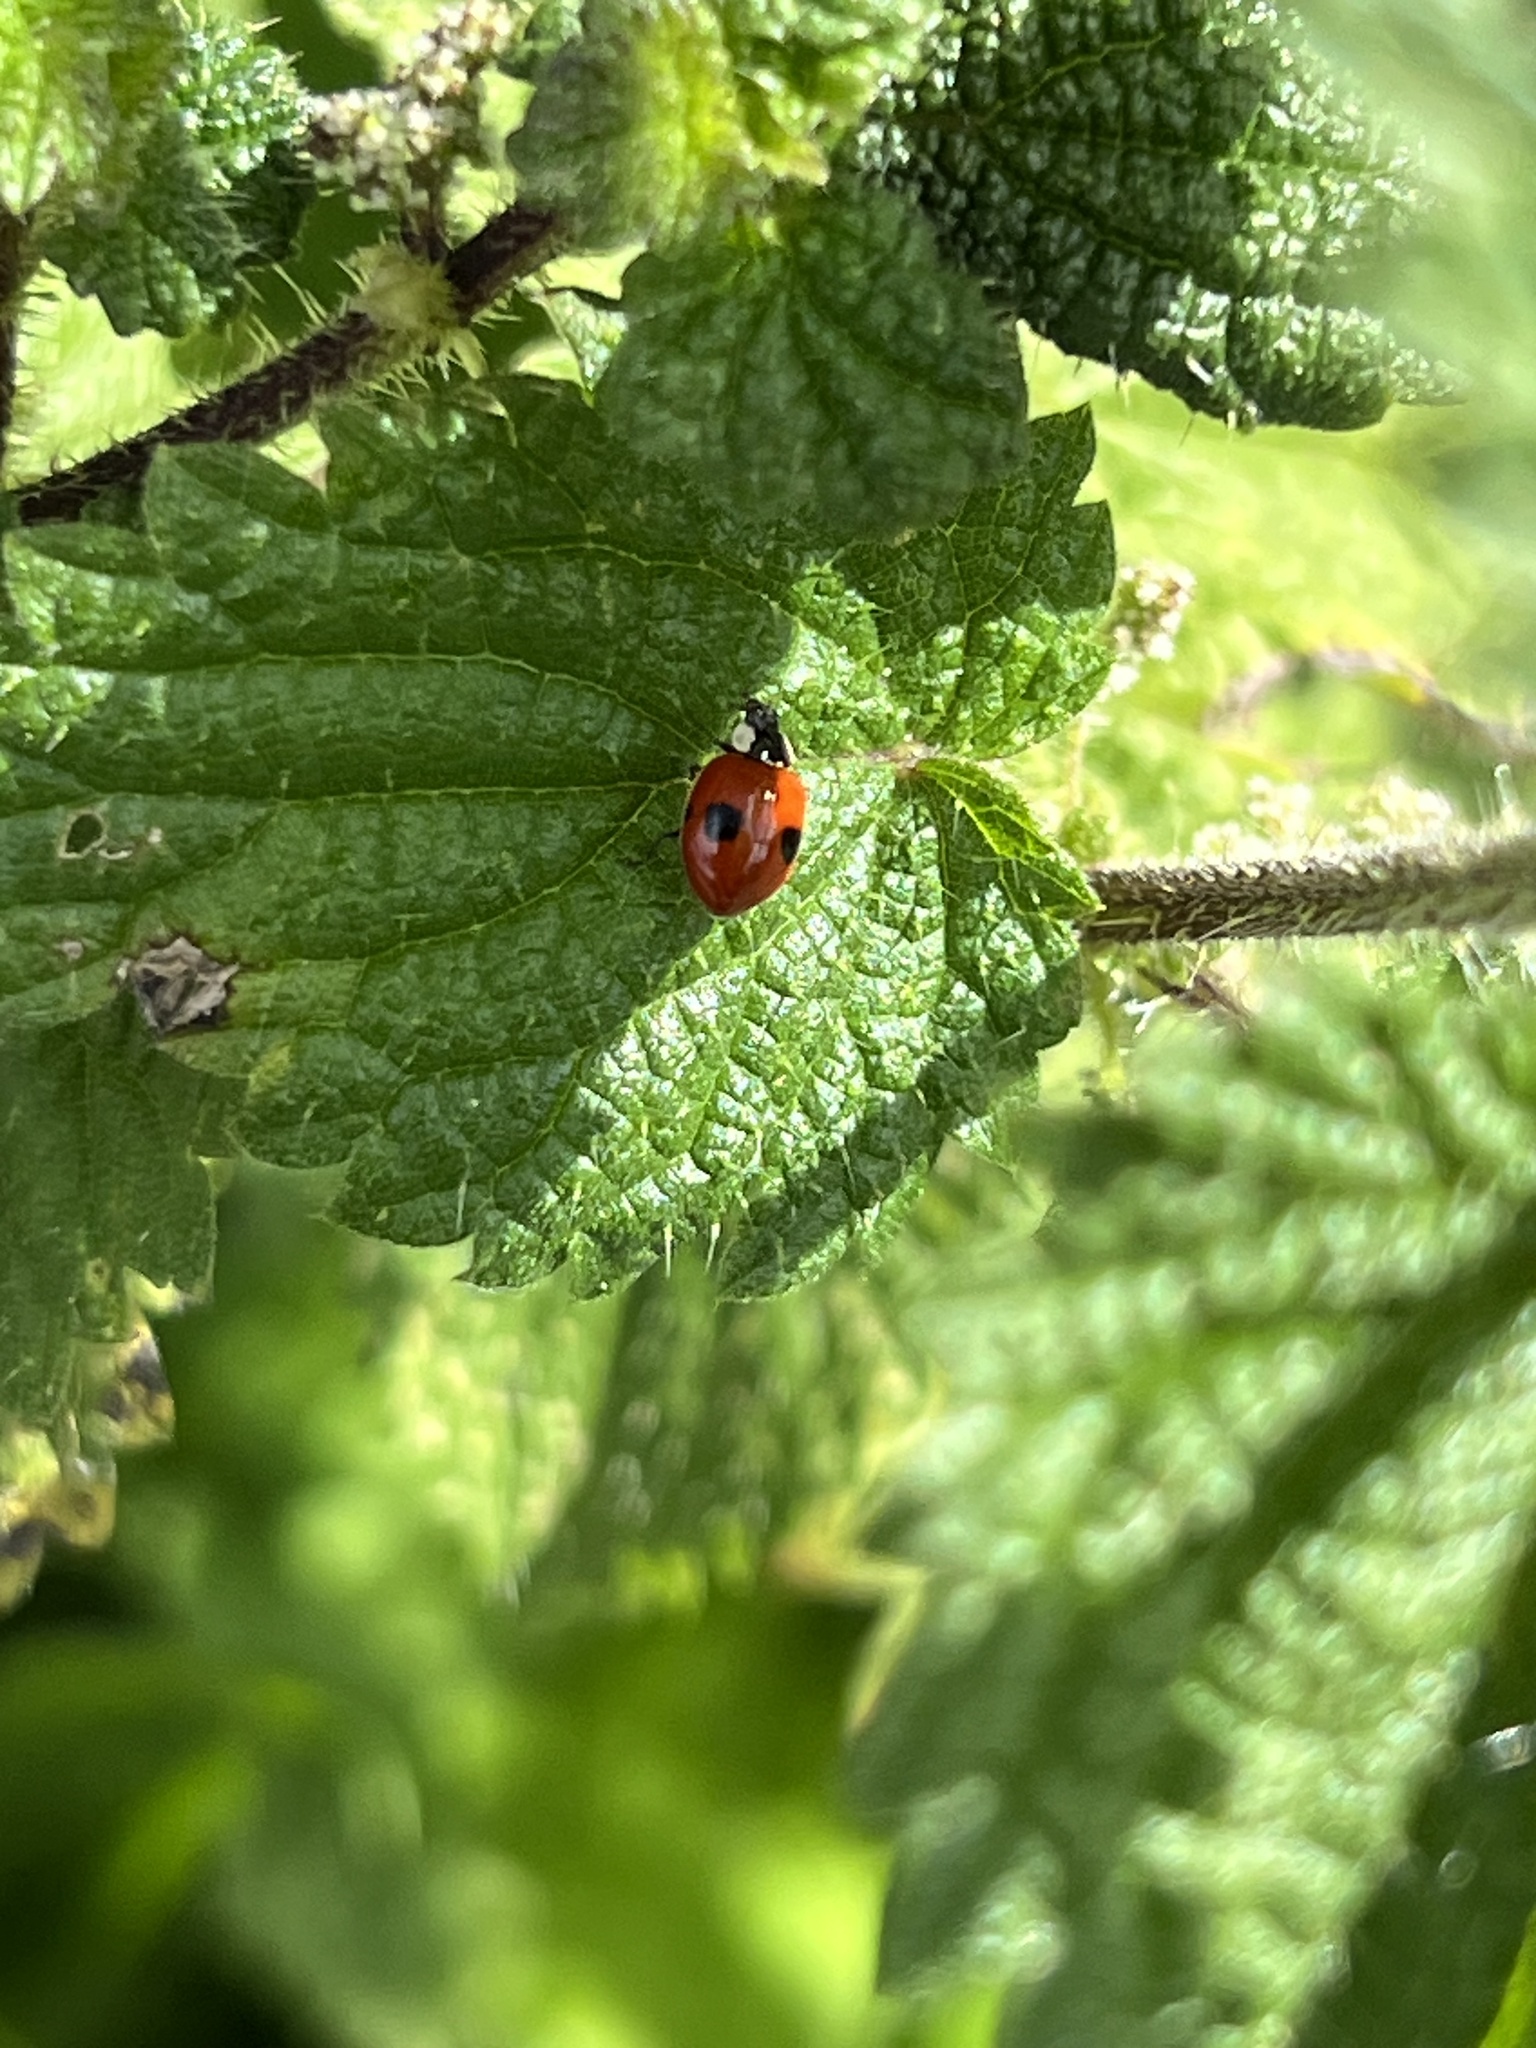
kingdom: Animalia
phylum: Arthropoda
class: Insecta
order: Coleoptera
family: Coccinellidae
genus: Adalia
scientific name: Adalia bipunctata
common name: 2-spot ladybird
